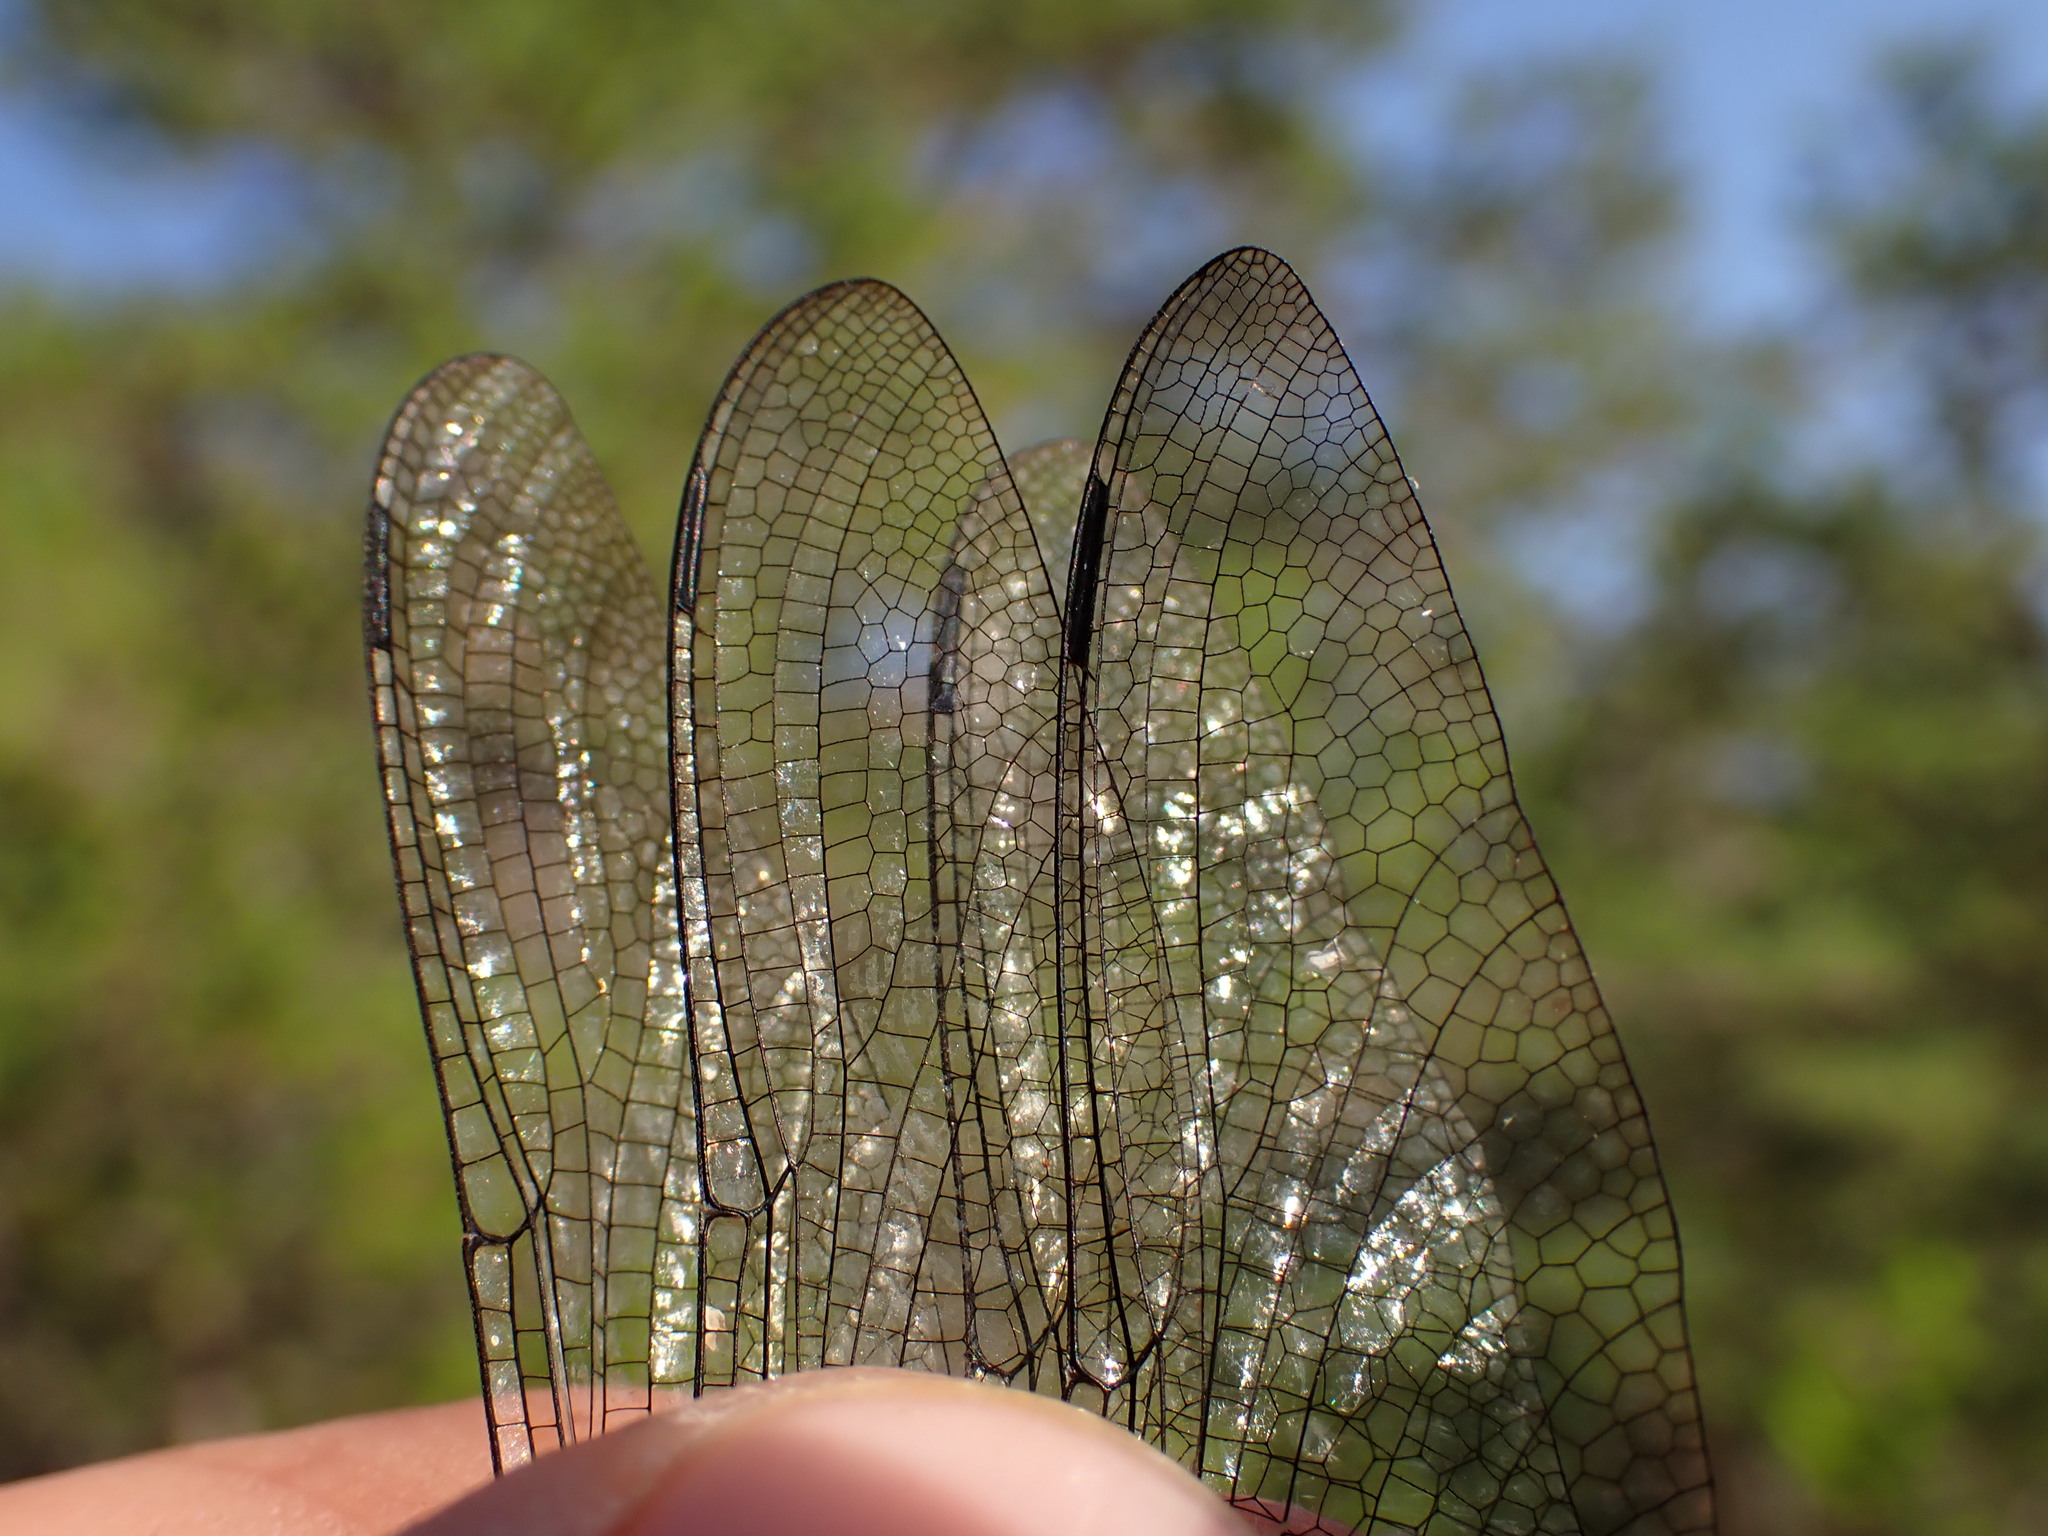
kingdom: Animalia
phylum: Arthropoda
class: Insecta
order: Odonata
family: Cordulegastridae
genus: Cordulegaster
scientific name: Cordulegaster bidentata
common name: Sombre goldenring
